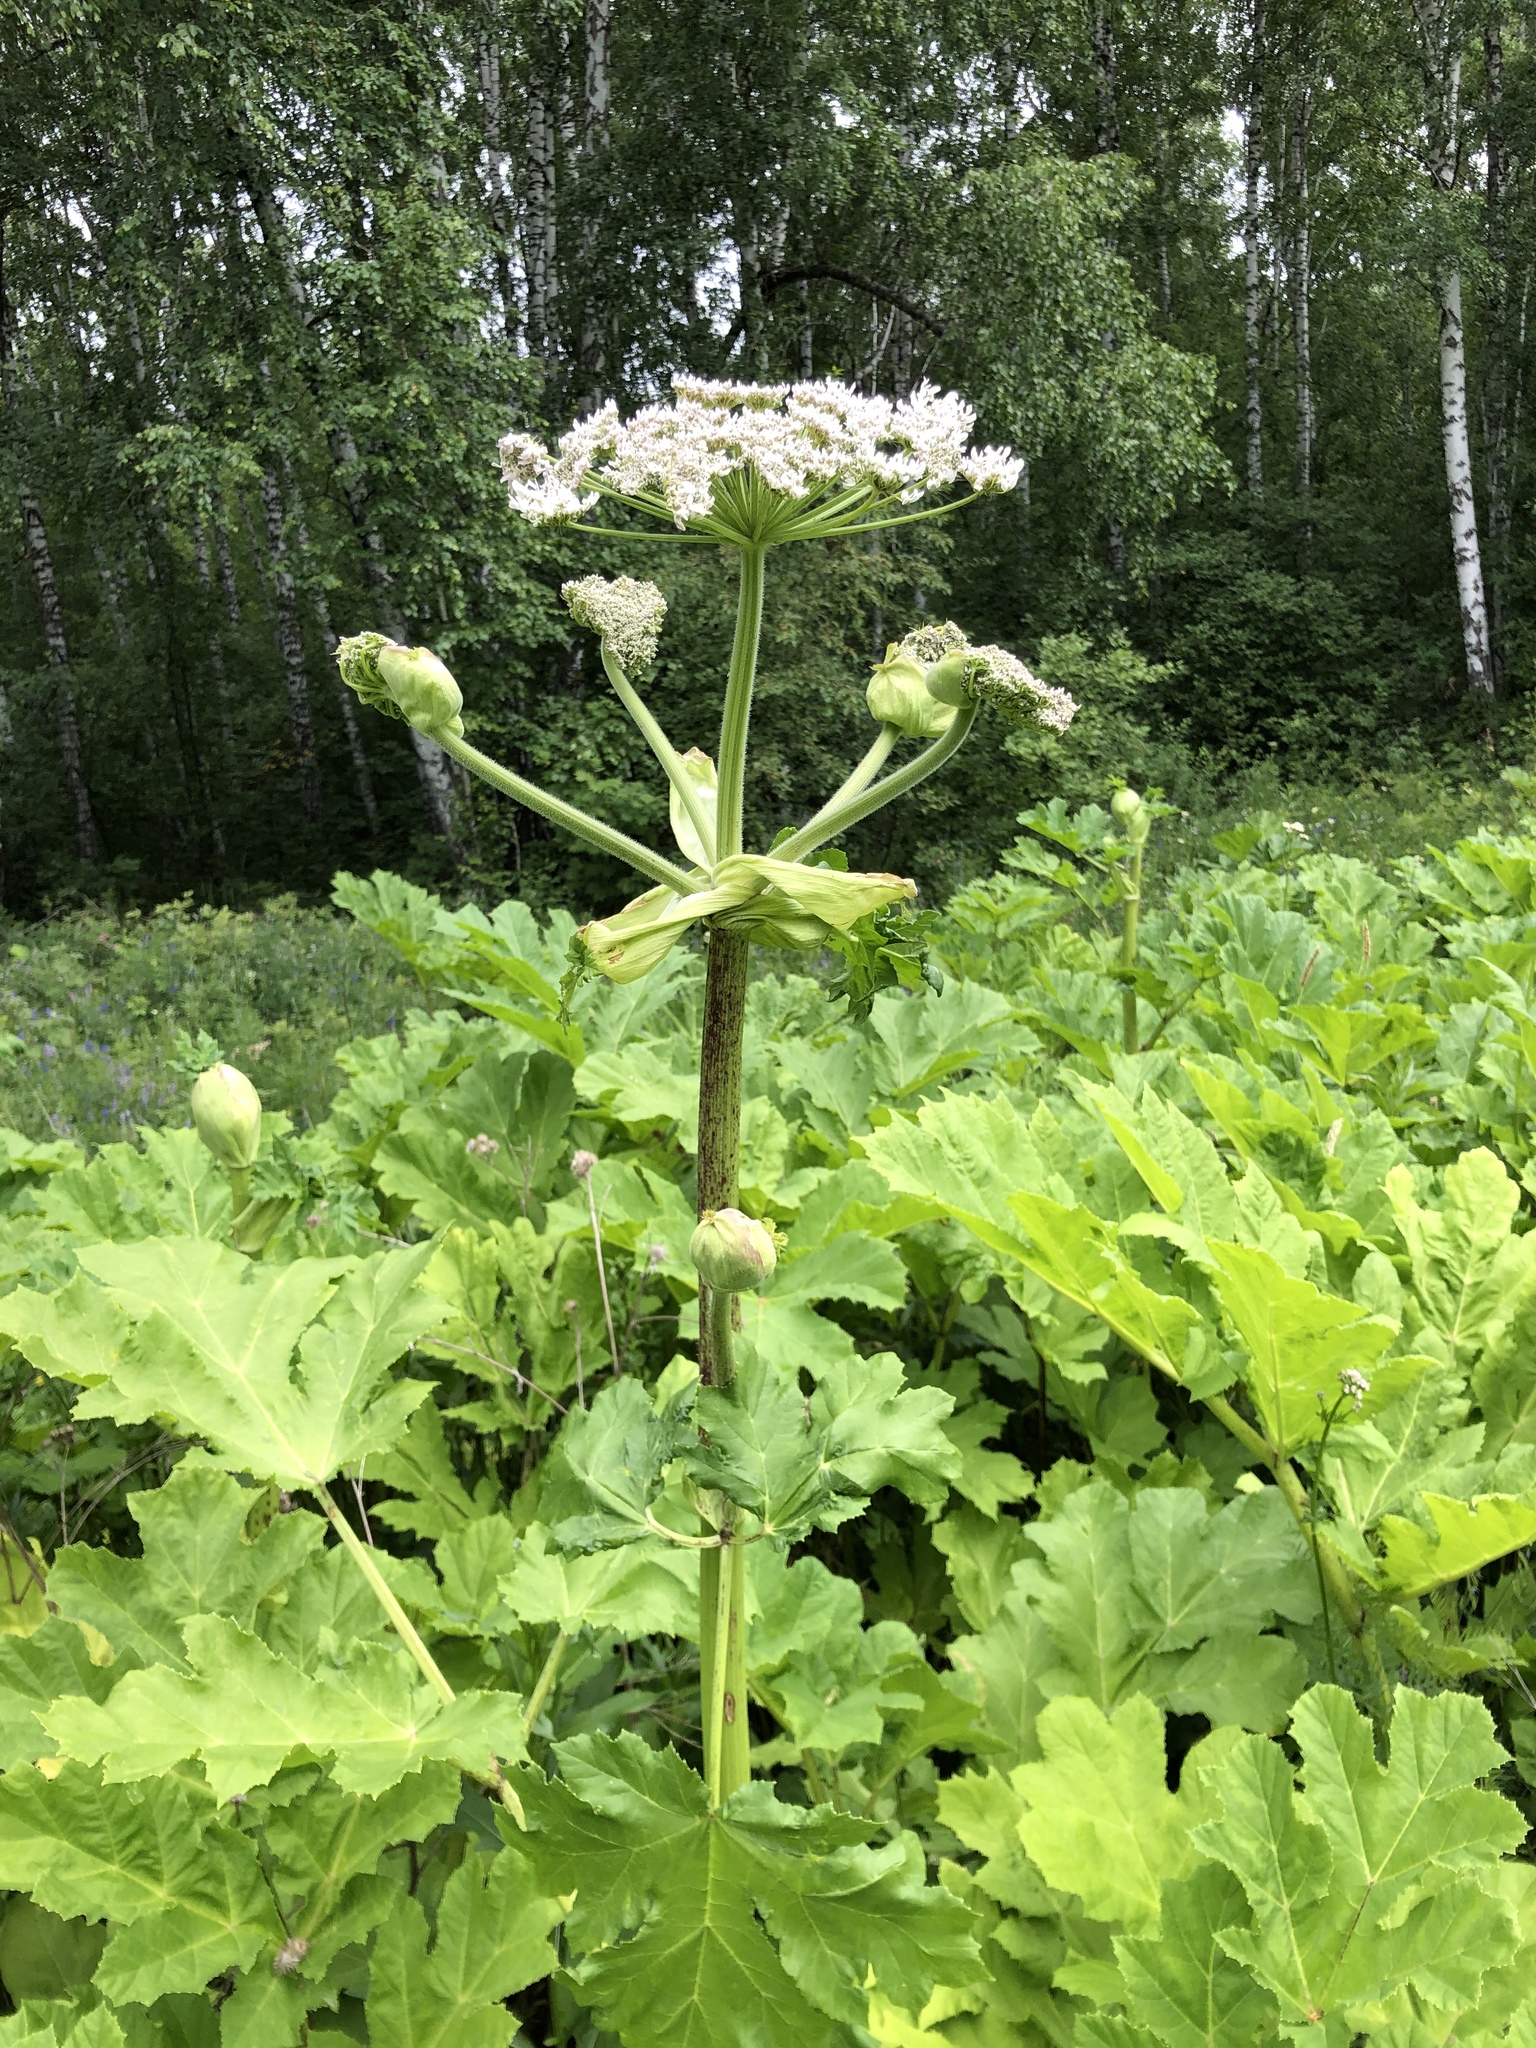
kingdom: Plantae
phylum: Tracheophyta
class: Magnoliopsida
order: Apiales
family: Apiaceae
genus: Heracleum
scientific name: Heracleum sosnowskyi
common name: Sosnowsky's hogweed
